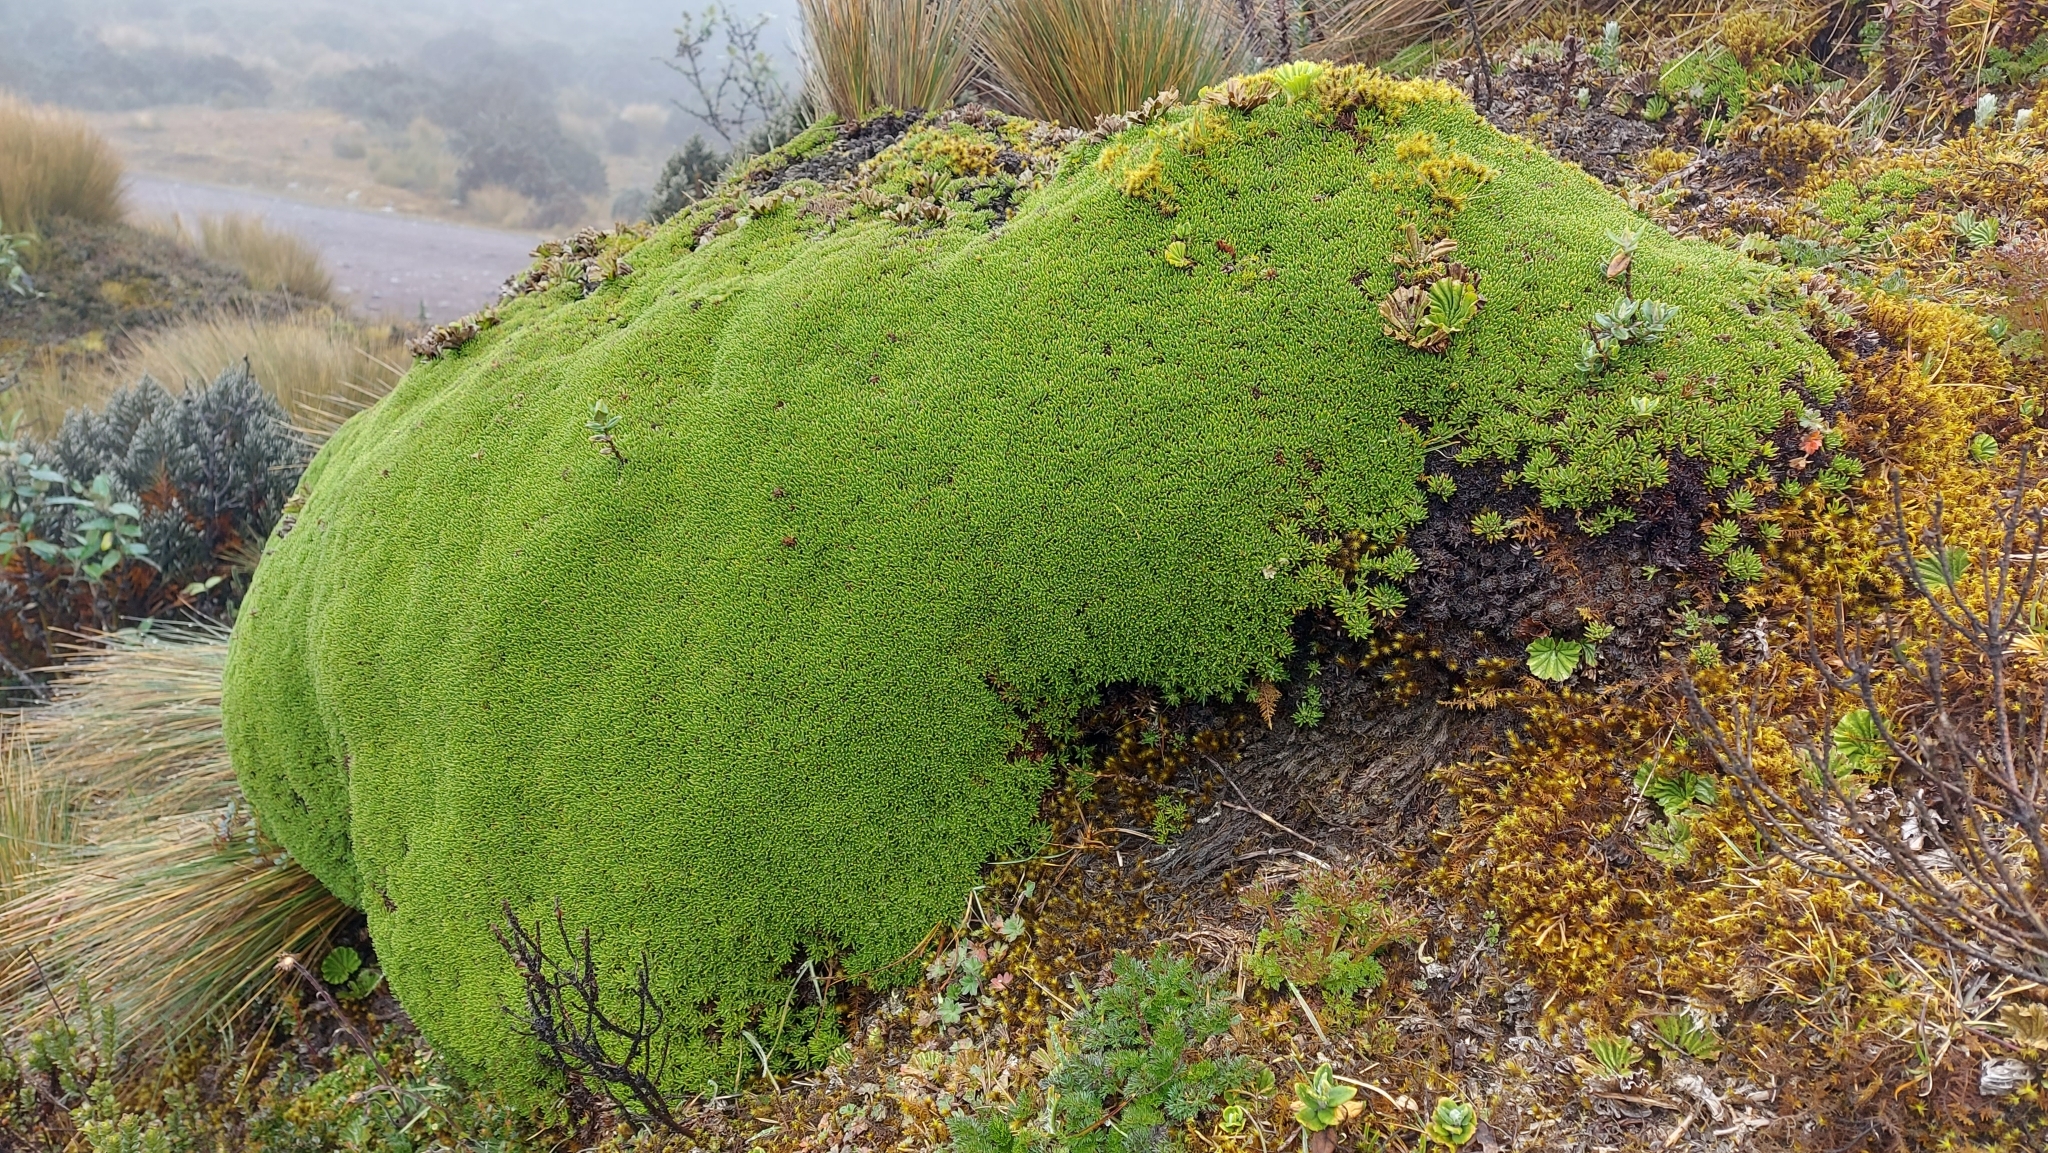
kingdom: Plantae
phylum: Tracheophyta
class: Magnoliopsida
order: Asterales
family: Asteraceae
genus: Werneria
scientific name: Werneria humilis
